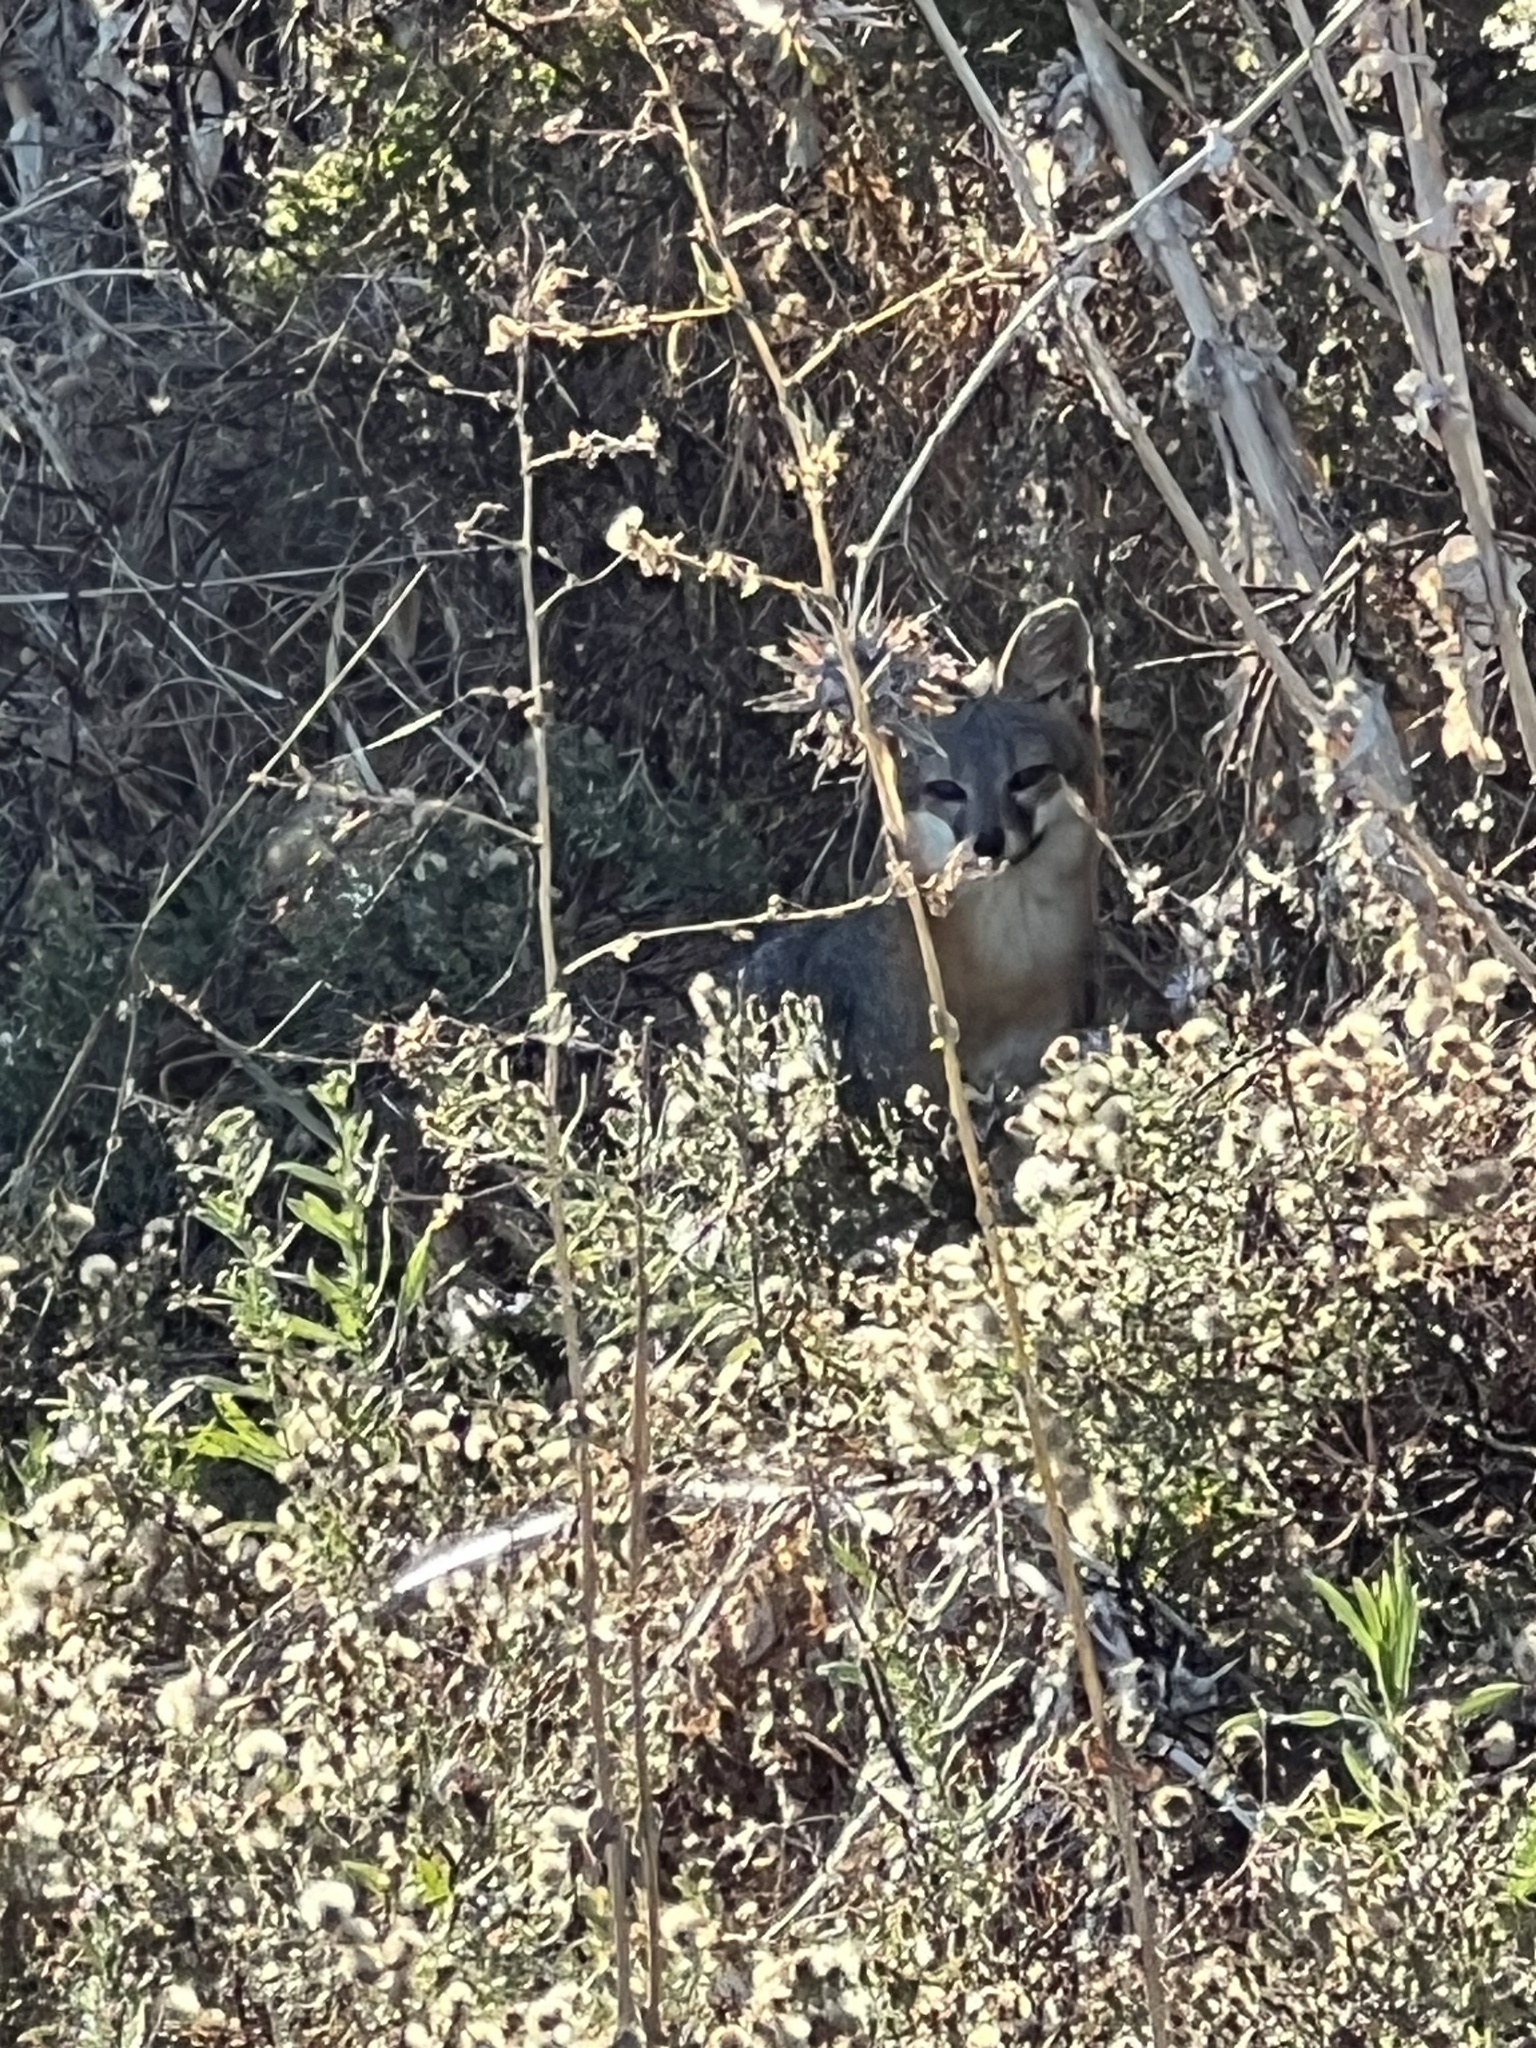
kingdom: Animalia
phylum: Chordata
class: Mammalia
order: Carnivora
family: Canidae
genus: Urocyon
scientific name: Urocyon littoralis
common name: Island gray fox
